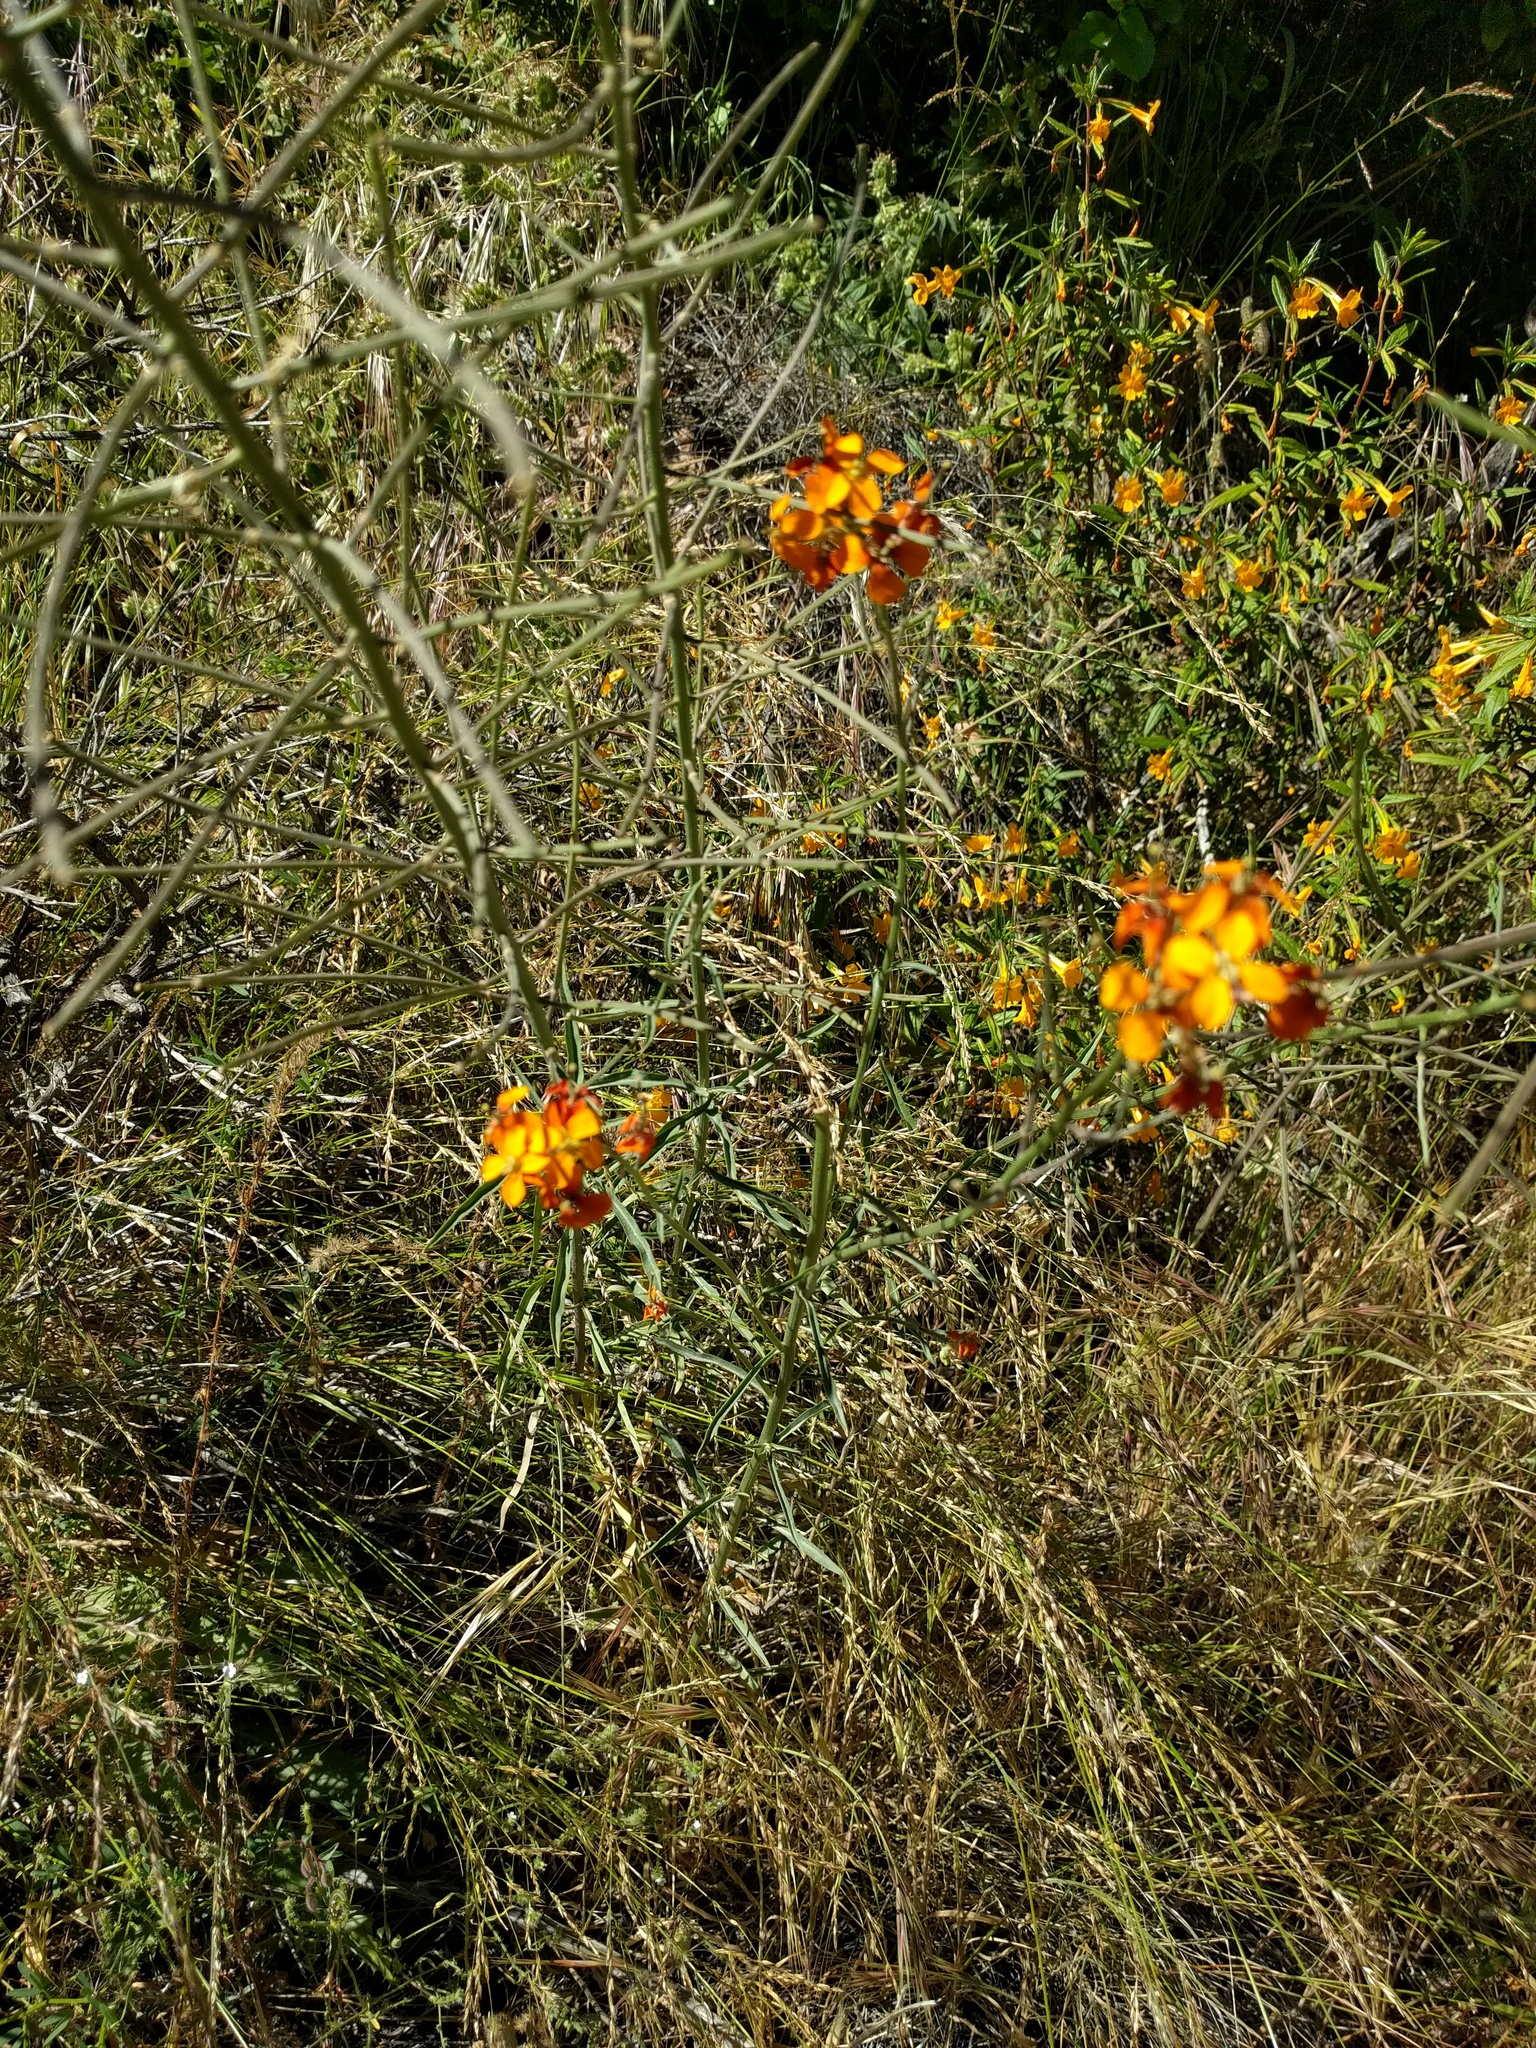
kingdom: Plantae
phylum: Tracheophyta
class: Magnoliopsida
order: Brassicales
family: Brassicaceae
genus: Erysimum
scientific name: Erysimum capitatum
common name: Western wallflower
